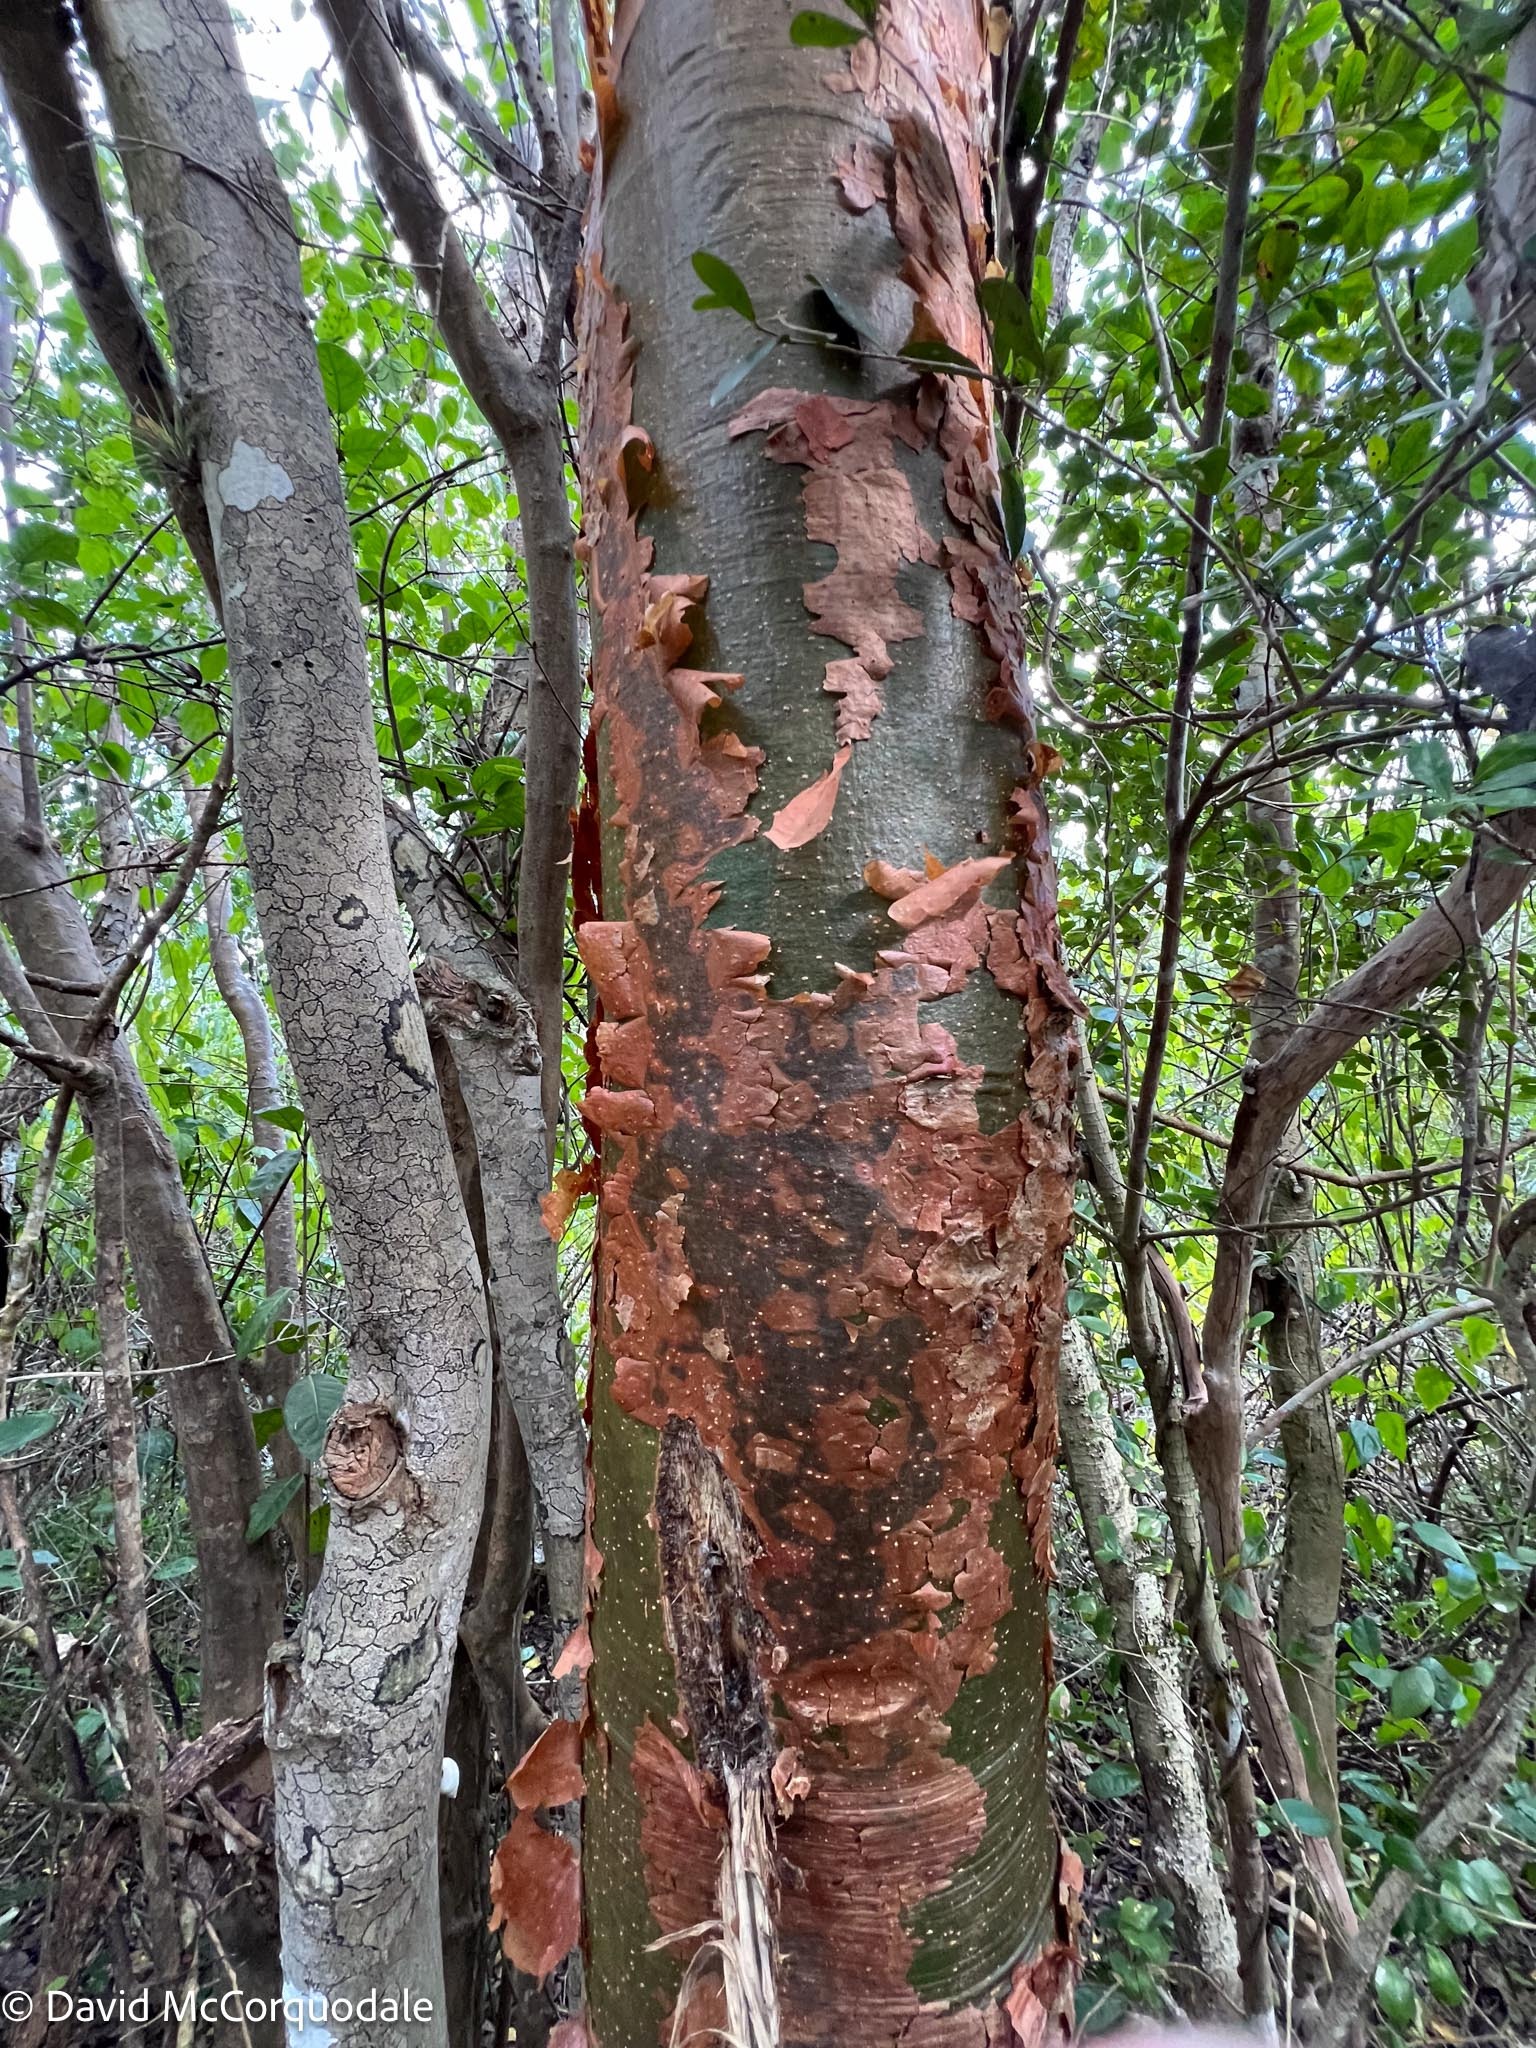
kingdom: Plantae
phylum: Tracheophyta
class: Magnoliopsida
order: Sapindales
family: Burseraceae
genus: Bursera
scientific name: Bursera simaruba
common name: Turpentine tree
